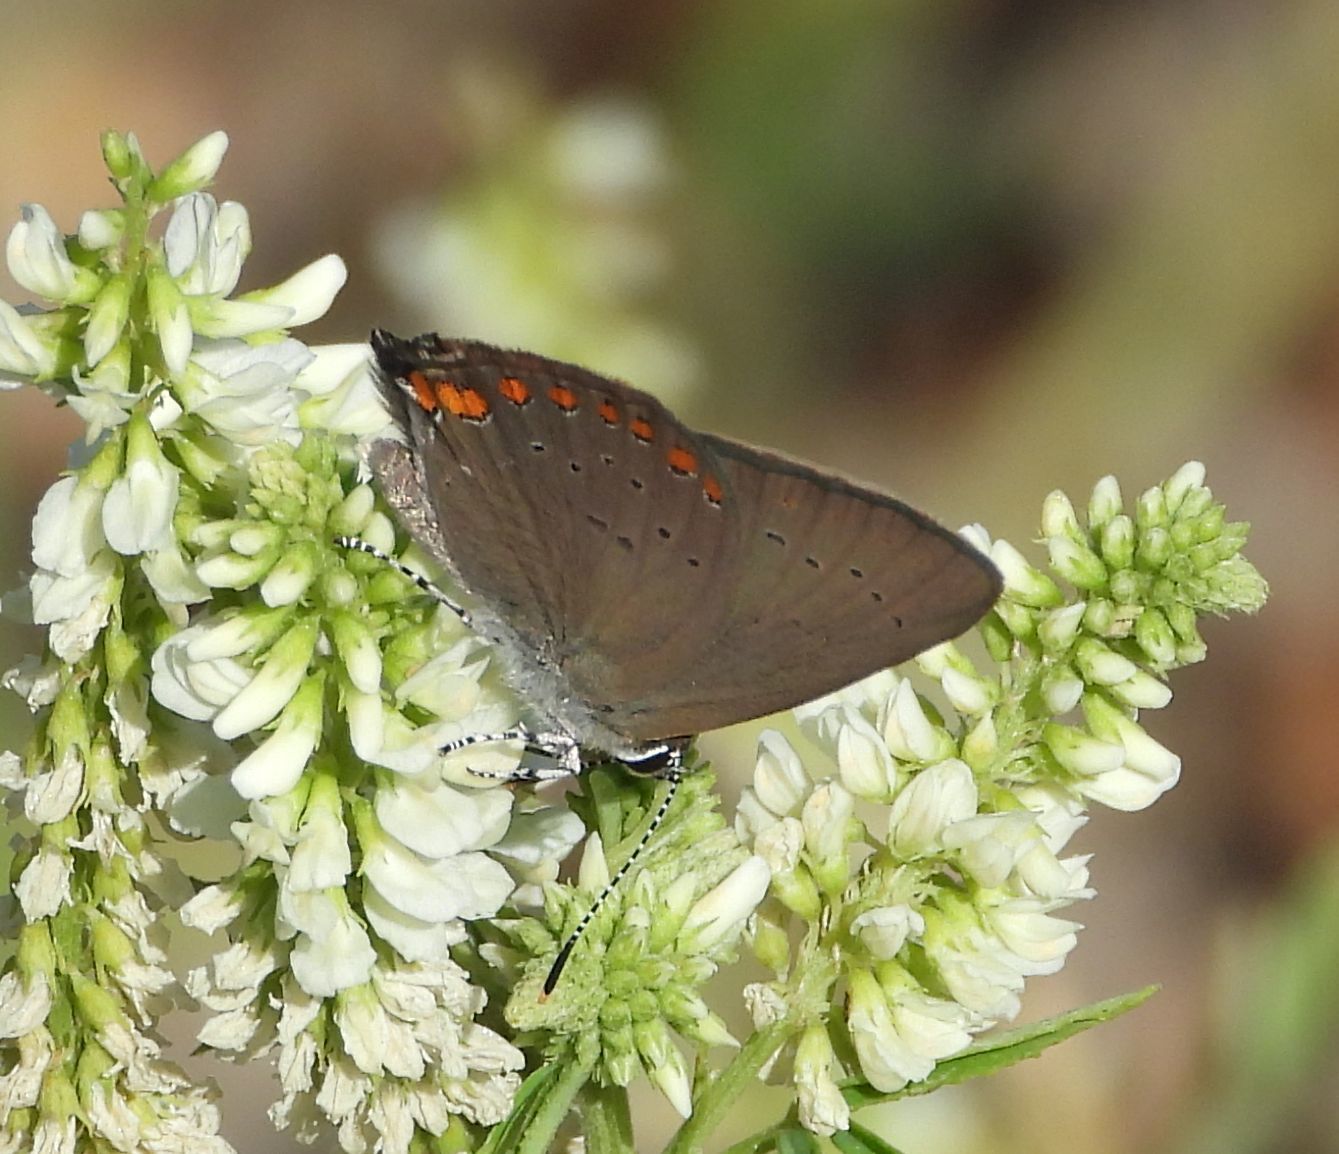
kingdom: Animalia
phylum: Arthropoda
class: Insecta
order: Lepidoptera
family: Lycaenidae
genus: Harkenclenus
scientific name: Harkenclenus titus
